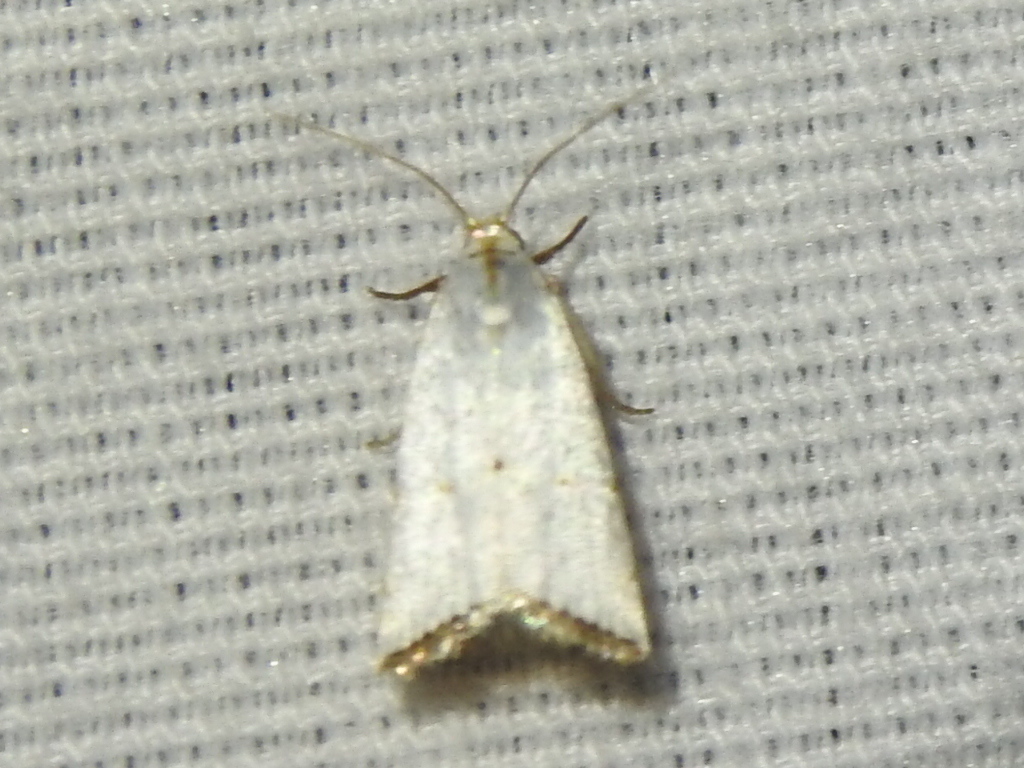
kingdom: Animalia
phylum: Arthropoda
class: Insecta
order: Lepidoptera
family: Crambidae
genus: Argyria
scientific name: Argyria pusillalis
